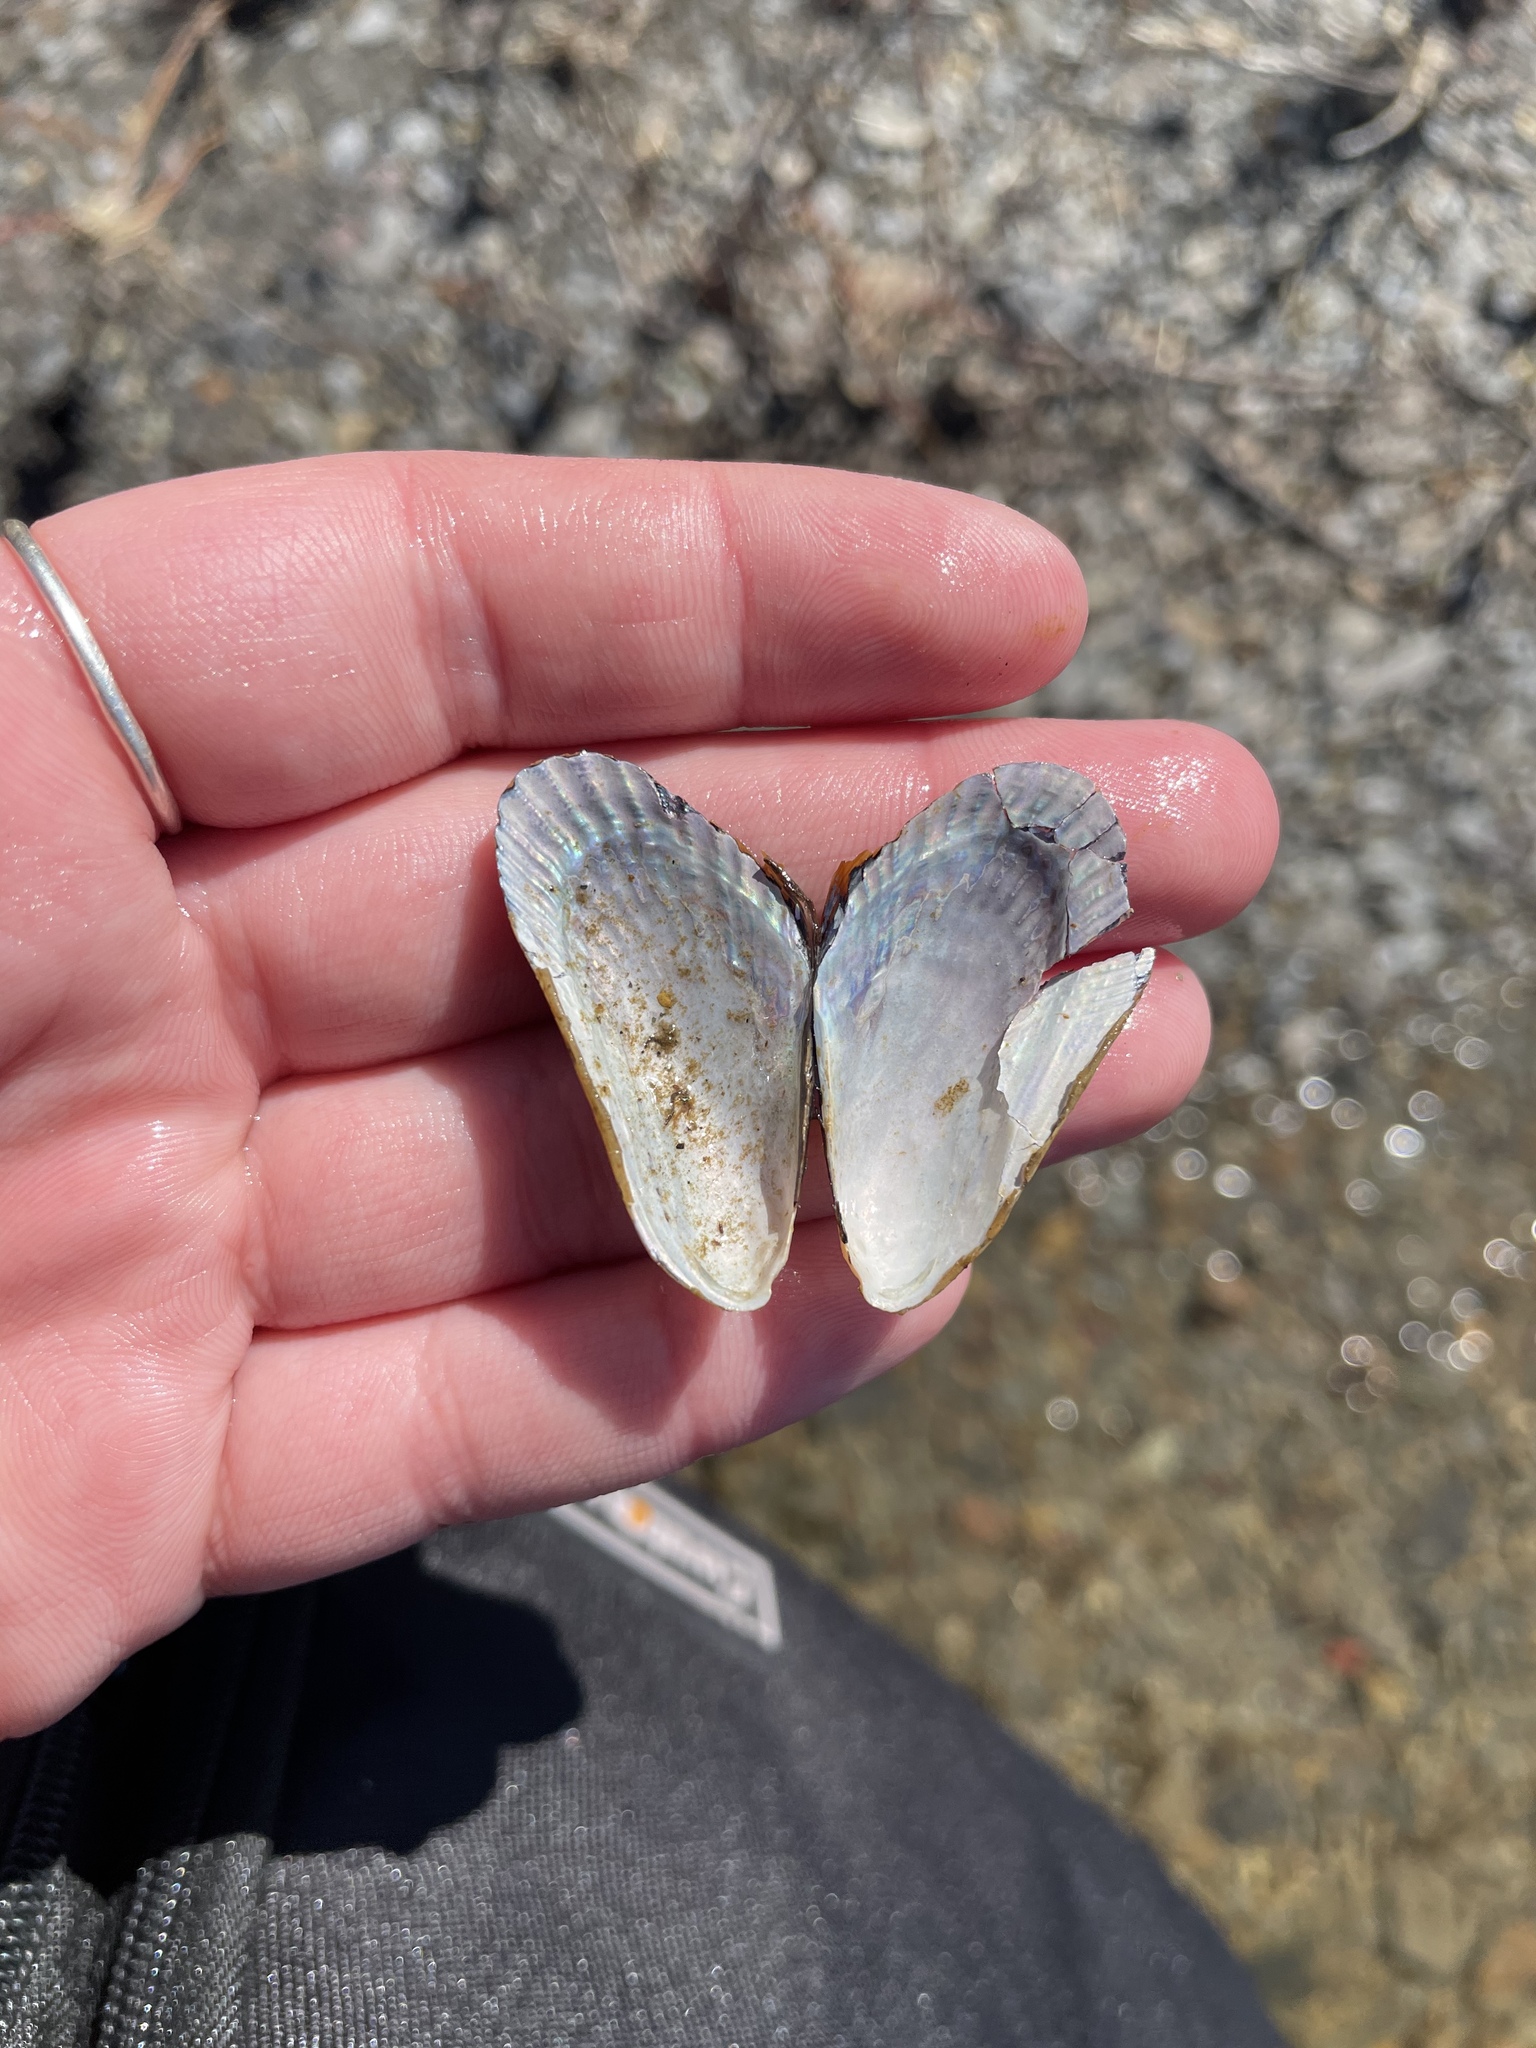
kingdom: Animalia
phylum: Mollusca
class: Bivalvia
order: Mytilida
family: Mytilidae
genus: Geukensia
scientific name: Geukensia demissa
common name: Ribbed mussel
